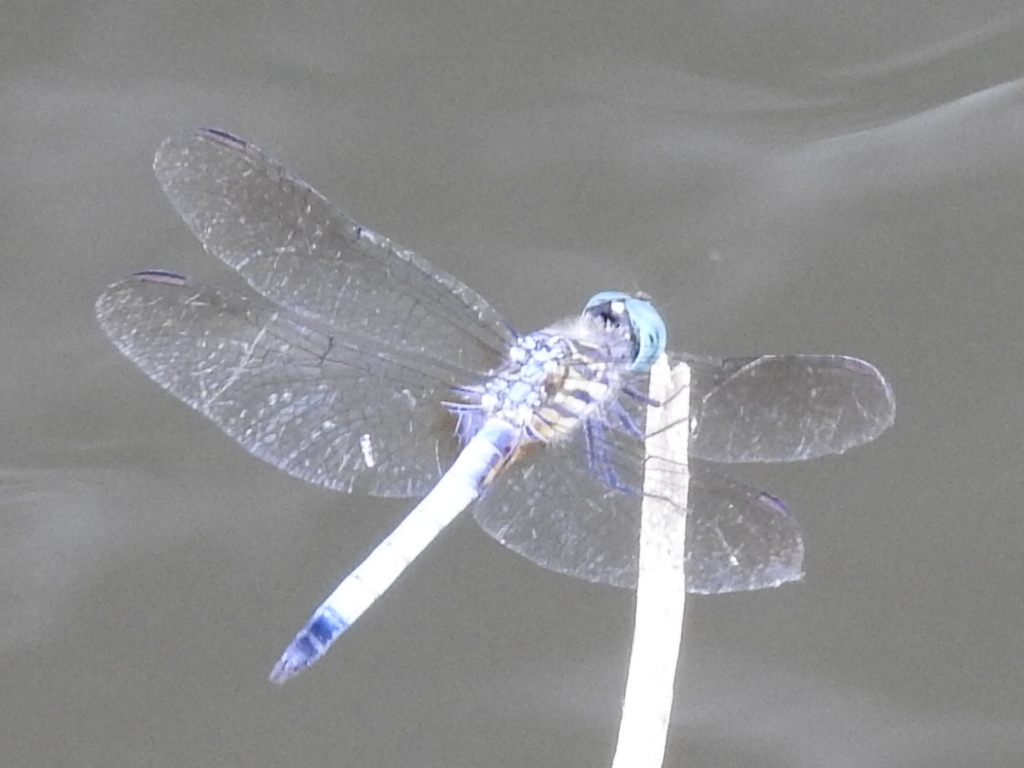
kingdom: Animalia
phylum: Arthropoda
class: Insecta
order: Odonata
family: Libellulidae
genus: Pachydiplax
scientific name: Pachydiplax longipennis
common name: Blue dasher
